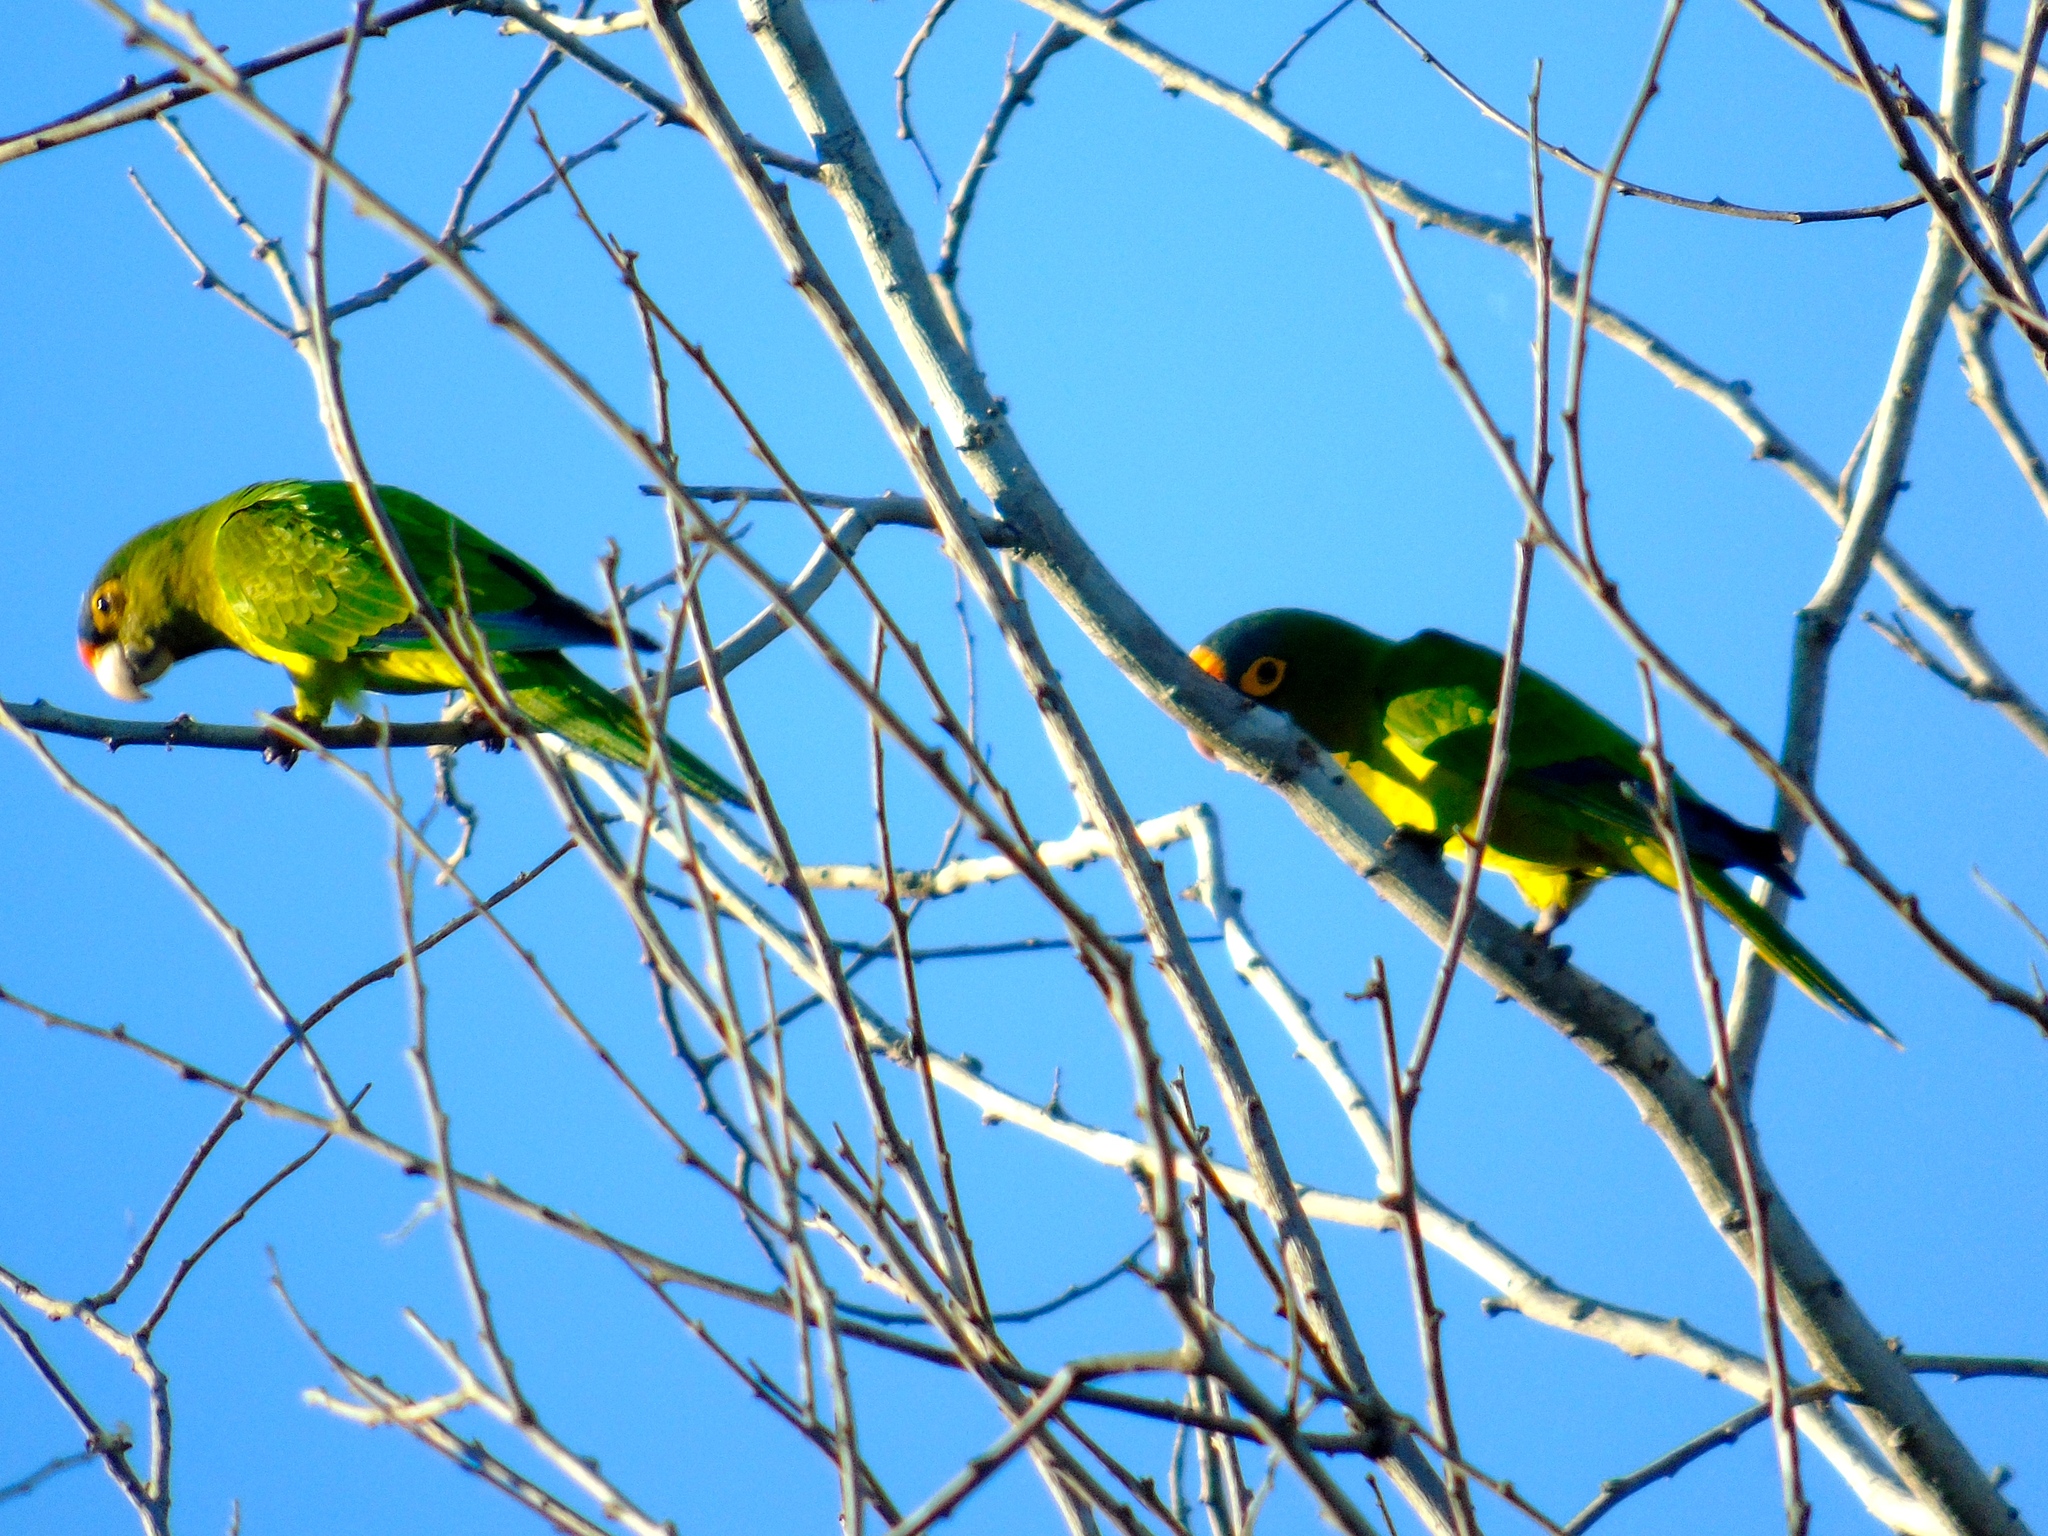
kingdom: Animalia
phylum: Chordata
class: Aves
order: Psittaciformes
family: Psittacidae
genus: Aratinga
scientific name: Aratinga canicularis
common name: Orange-fronted parakeet
